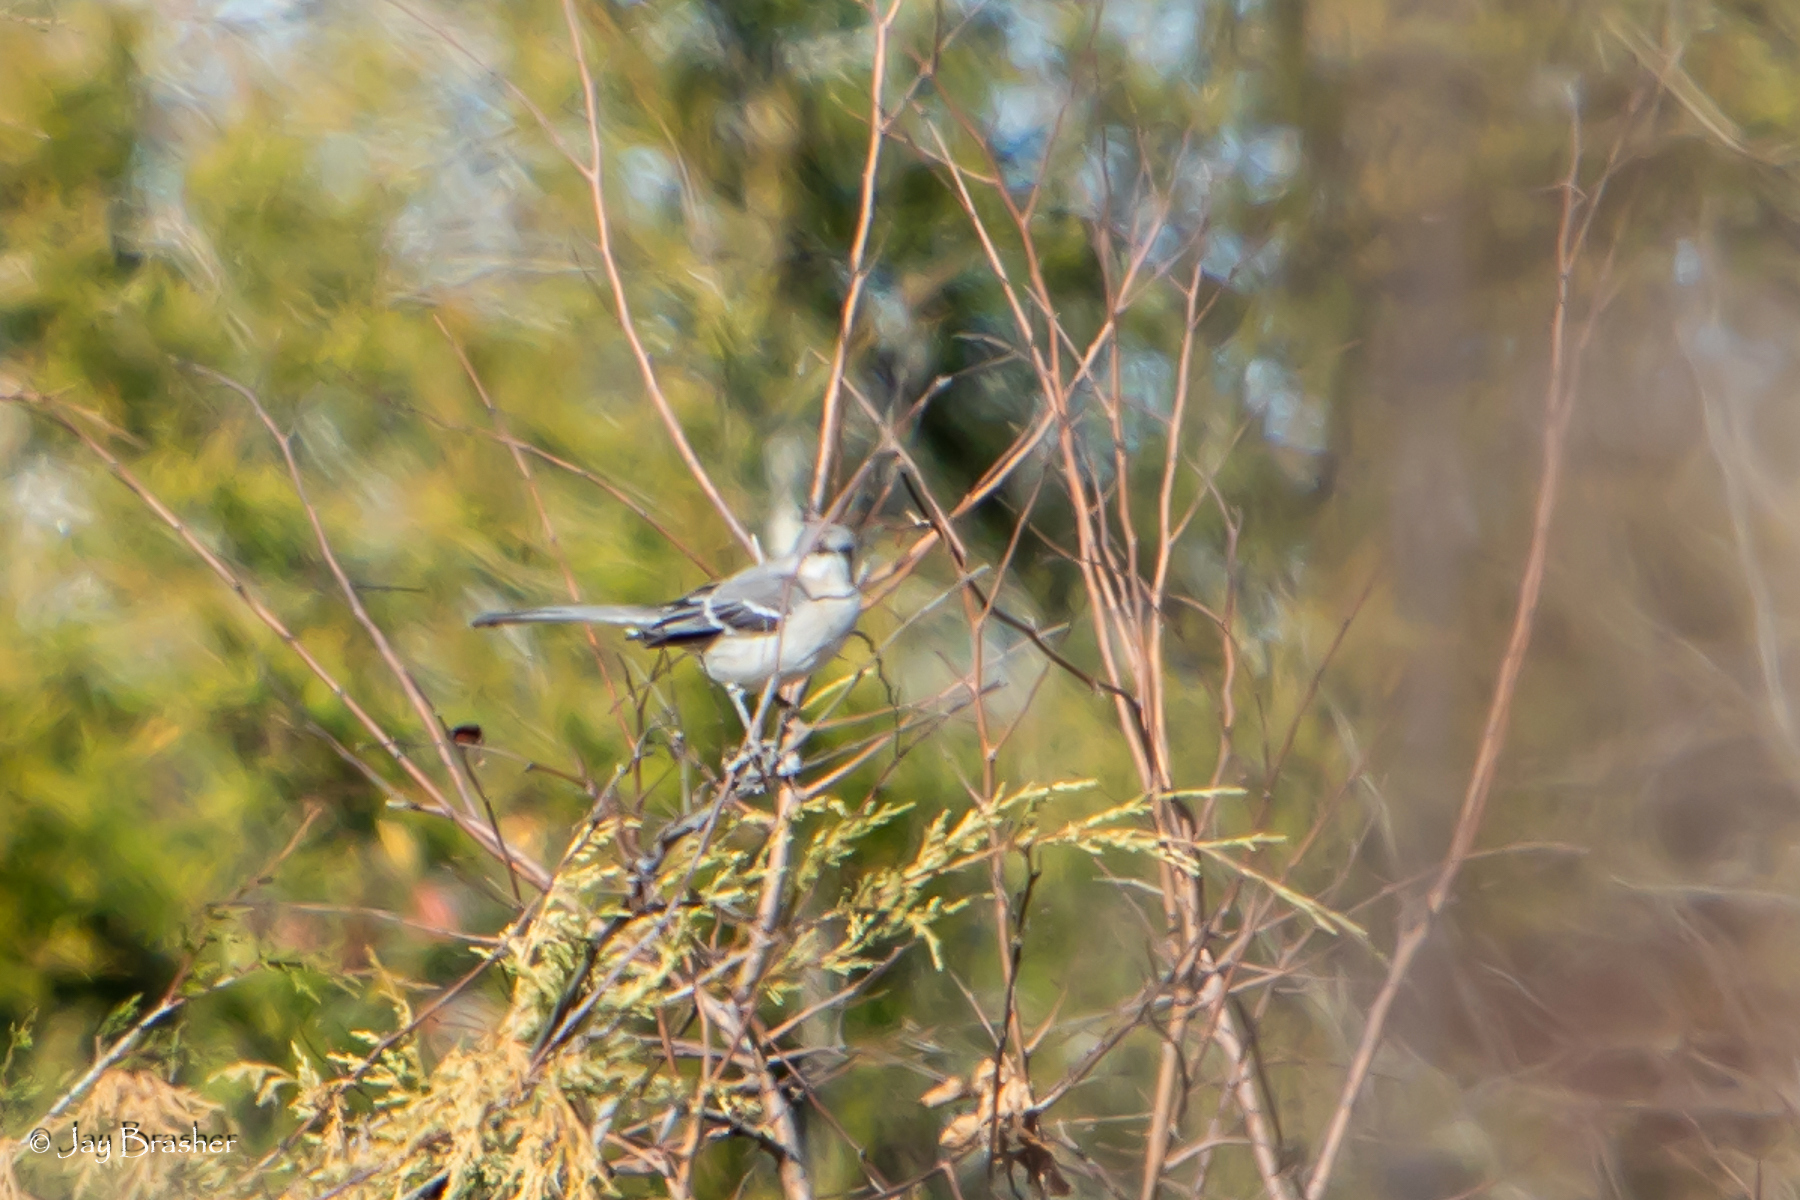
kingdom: Animalia
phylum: Chordata
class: Aves
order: Passeriformes
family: Mimidae
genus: Mimus
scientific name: Mimus polyglottos
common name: Northern mockingbird
